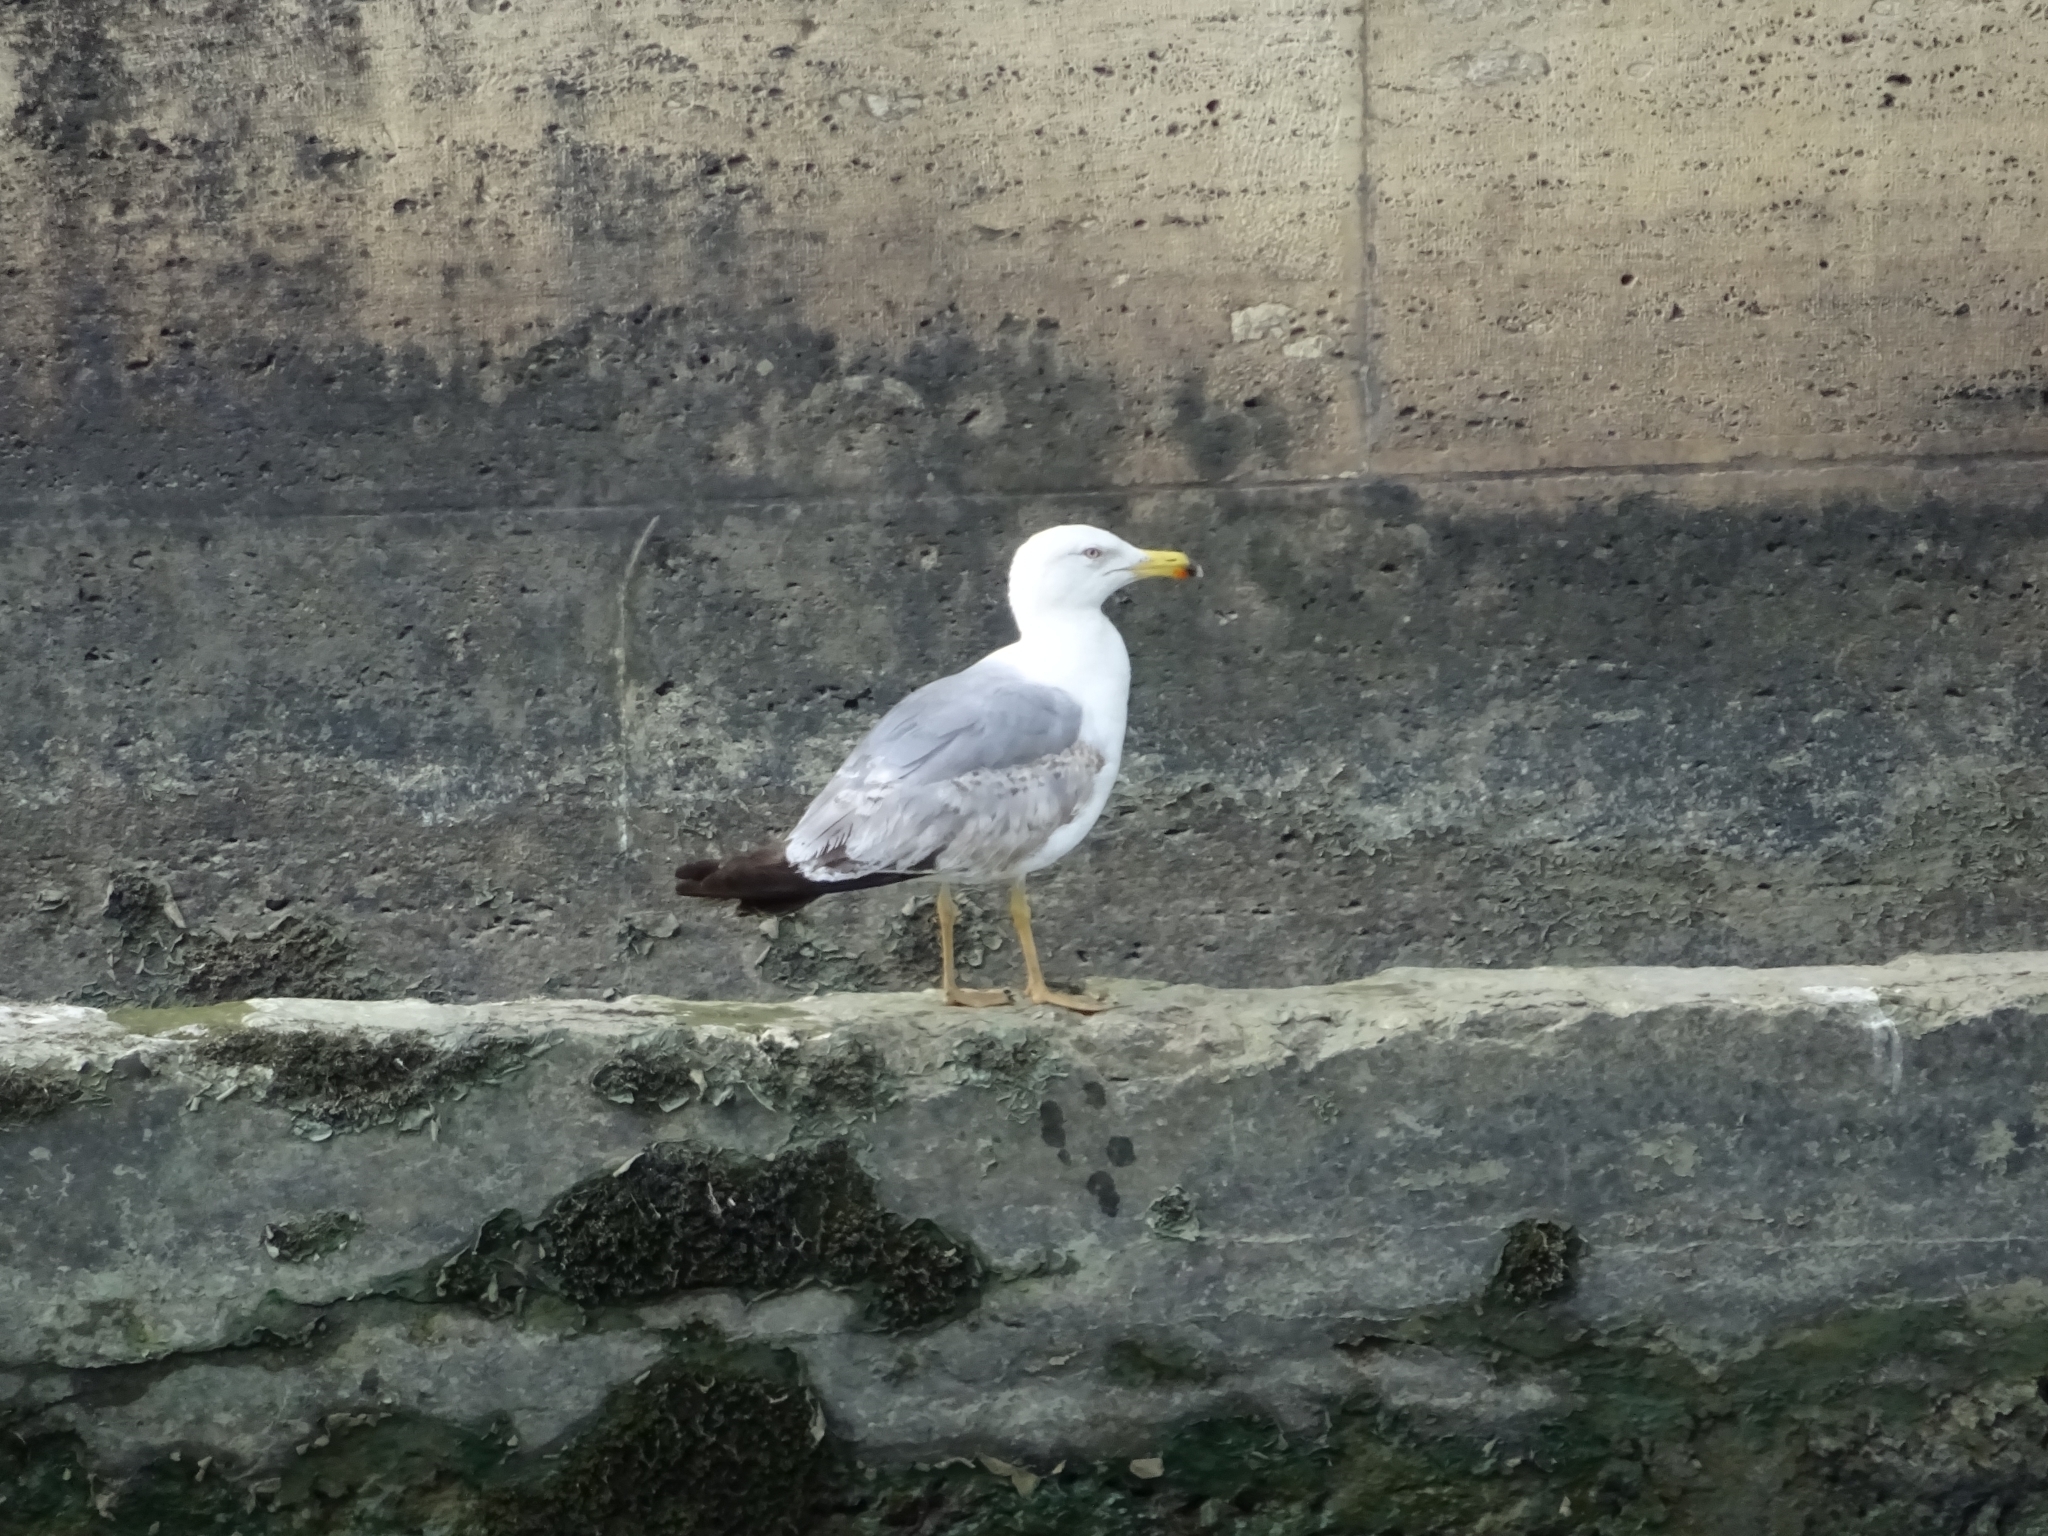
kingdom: Animalia
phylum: Chordata
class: Aves
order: Charadriiformes
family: Laridae
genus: Larus
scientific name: Larus michahellis
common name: Yellow-legged gull
